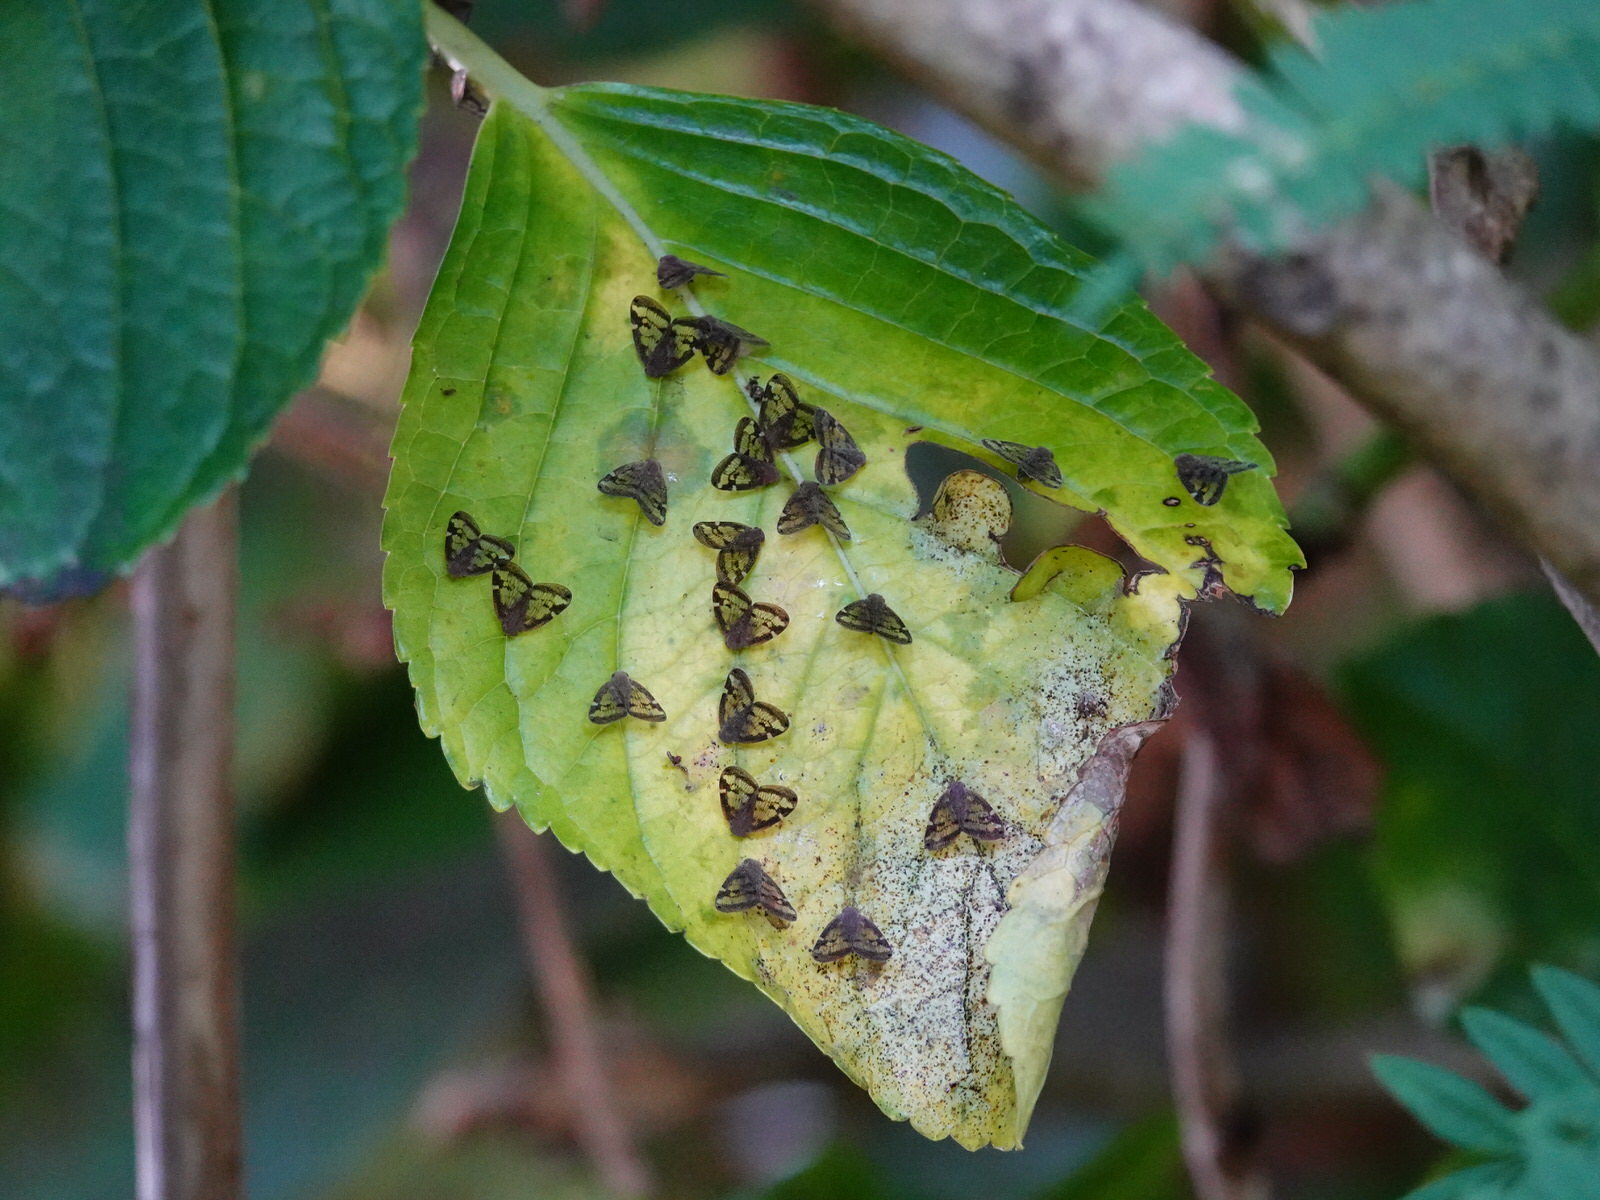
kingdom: Animalia
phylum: Arthropoda
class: Insecta
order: Hemiptera
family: Ricaniidae
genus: Scolypopa
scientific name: Scolypopa australis
